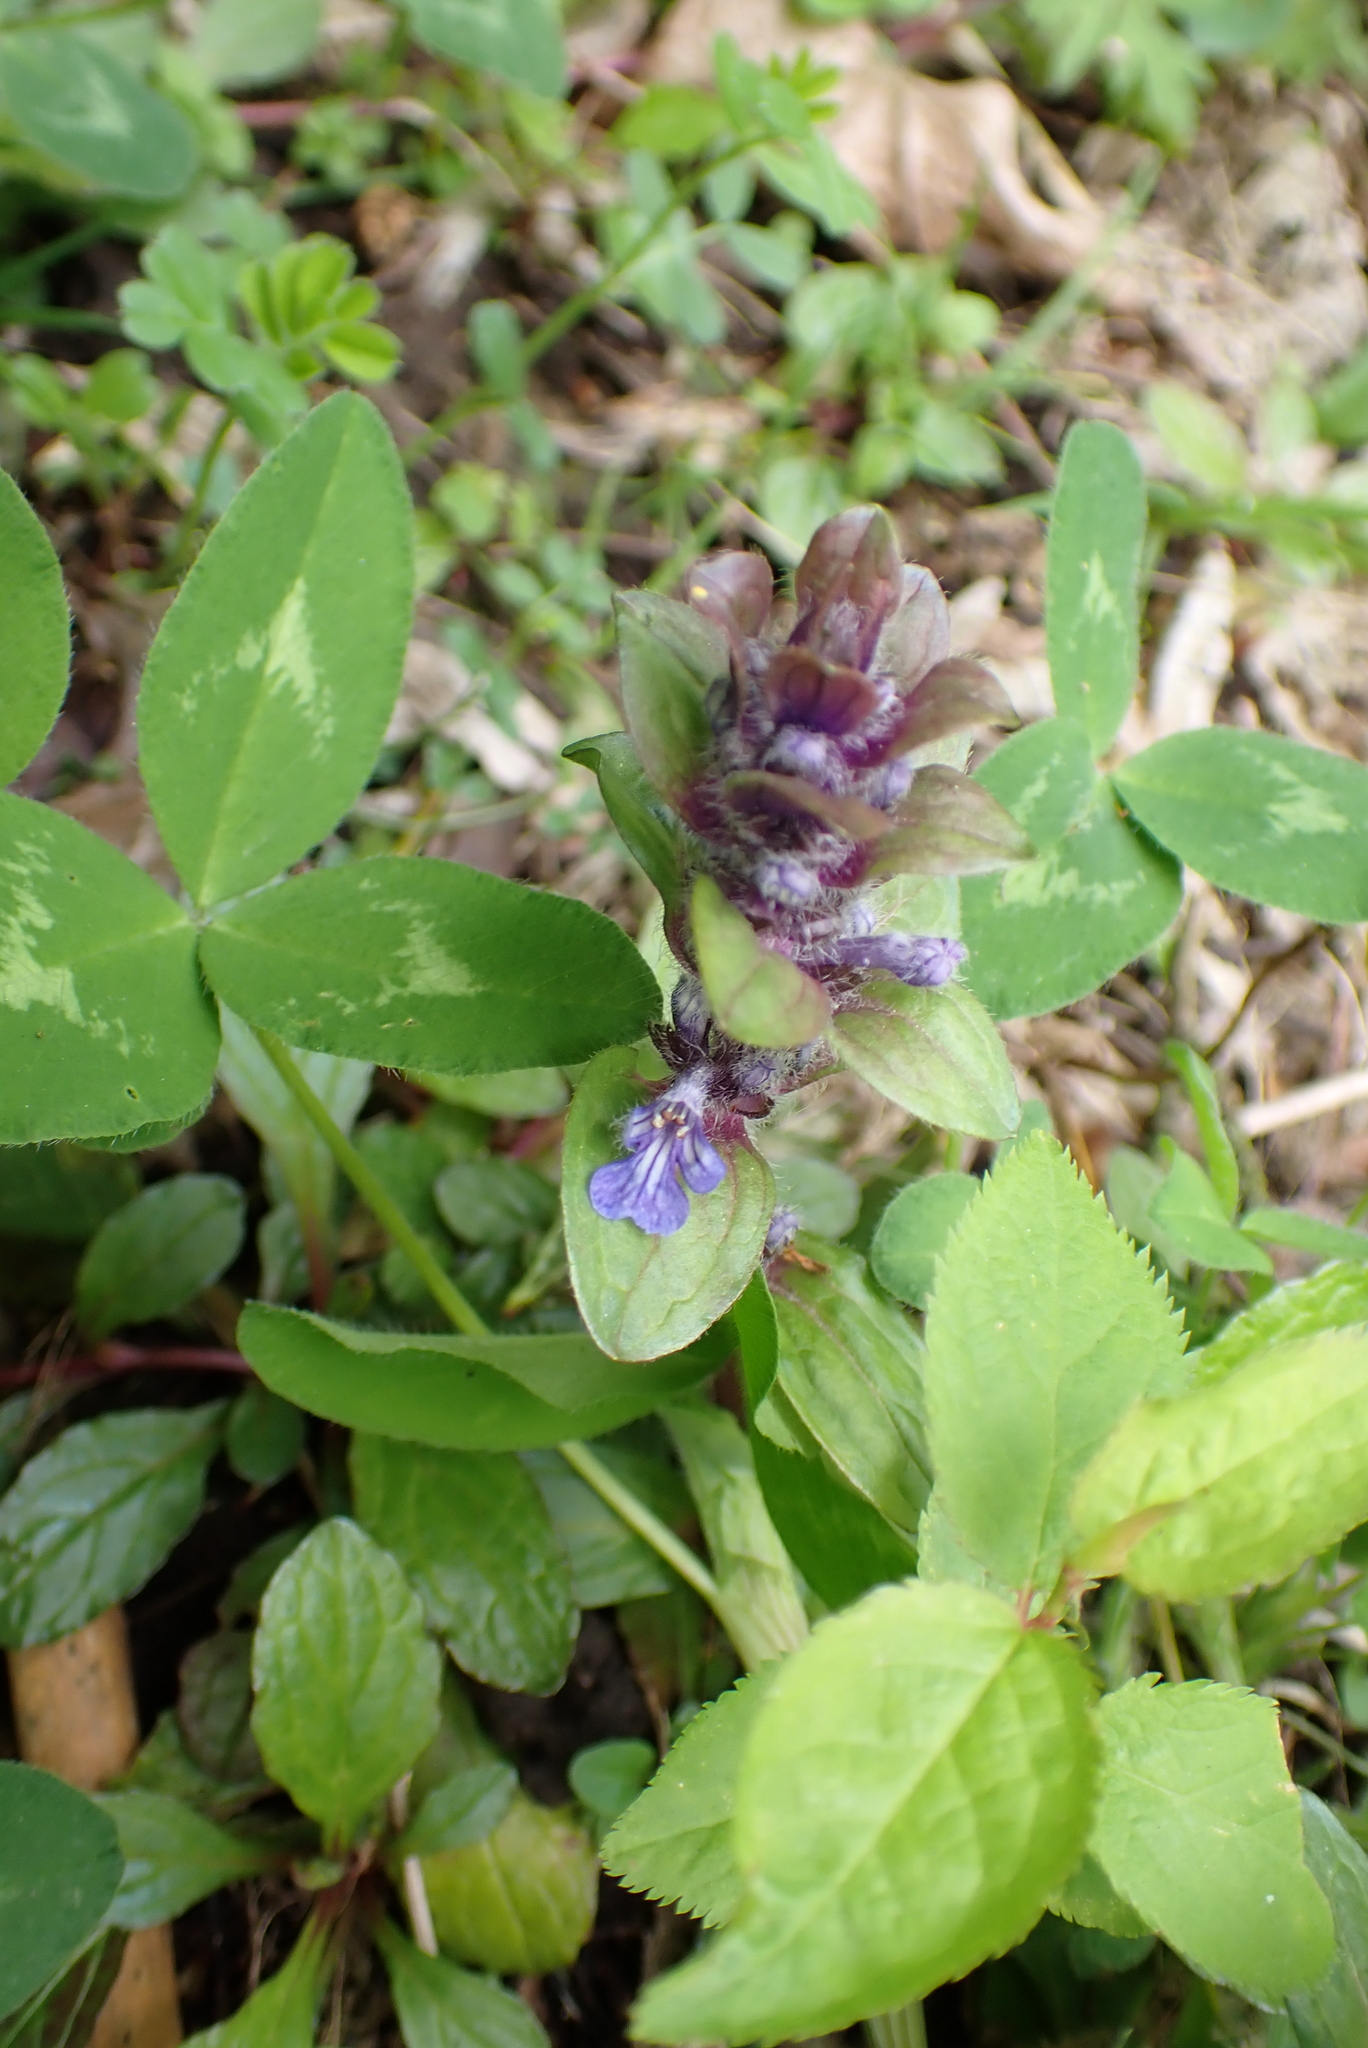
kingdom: Plantae
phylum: Tracheophyta
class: Magnoliopsida
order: Lamiales
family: Lamiaceae
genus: Ajuga
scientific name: Ajuga reptans
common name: Bugle
